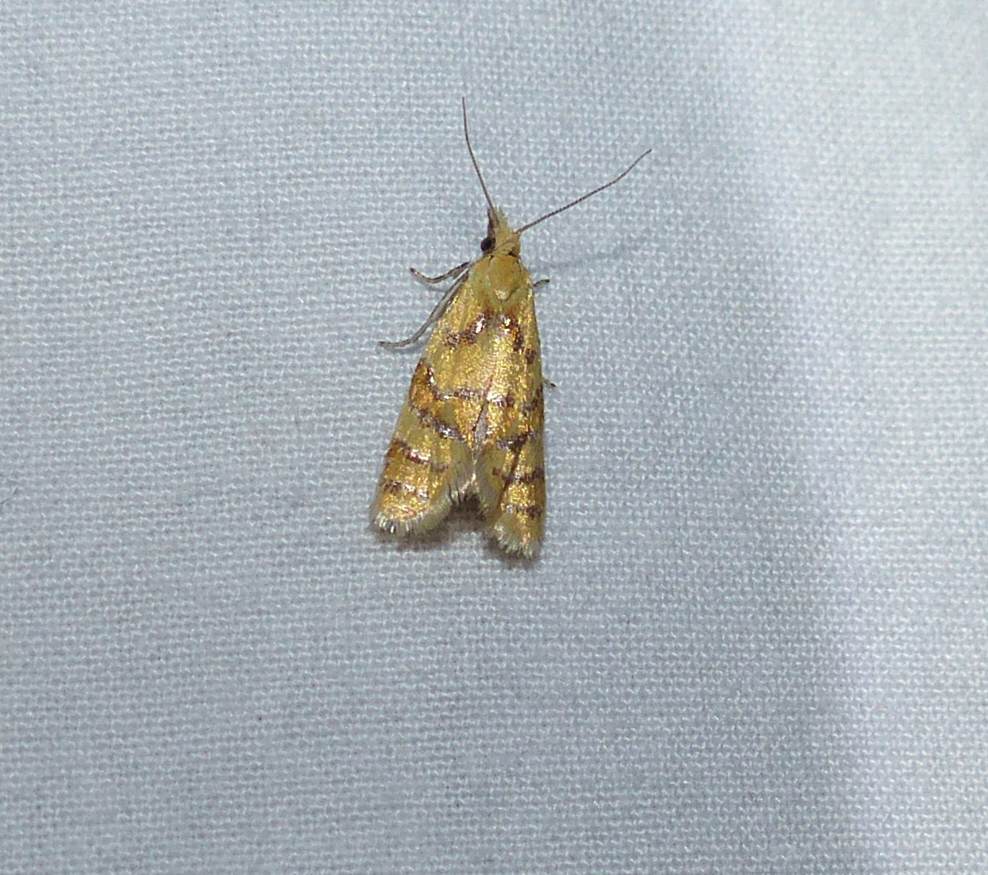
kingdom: Animalia
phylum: Arthropoda
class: Insecta
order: Lepidoptera
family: Tortricidae
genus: Phtheochroa
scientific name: Phtheochroa vitellinana
